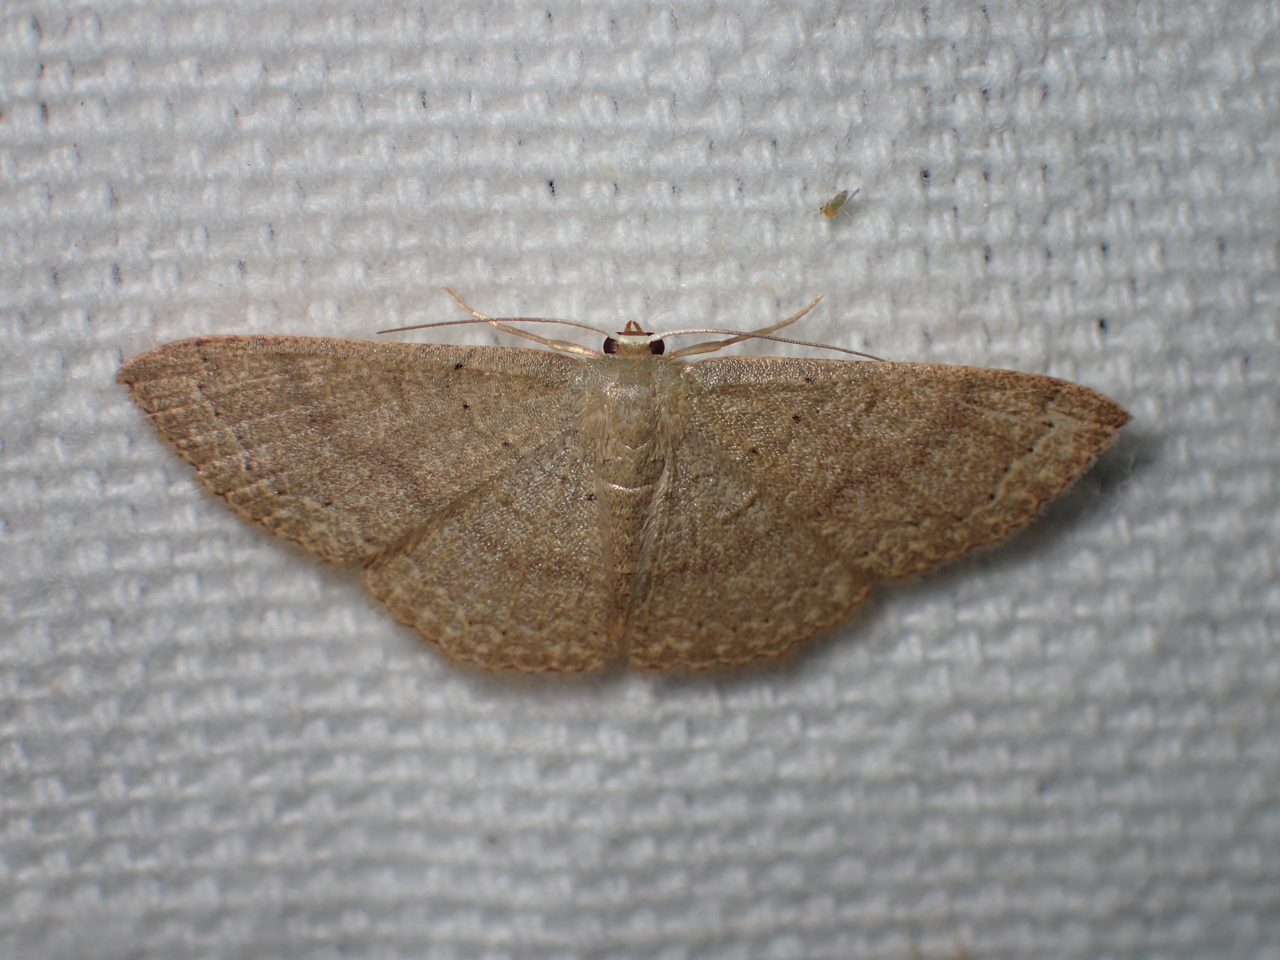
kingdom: Animalia
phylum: Arthropoda
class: Insecta
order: Lepidoptera
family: Geometridae
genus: Pleuroprucha
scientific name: Pleuroprucha insulsaria
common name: Common tan wave
